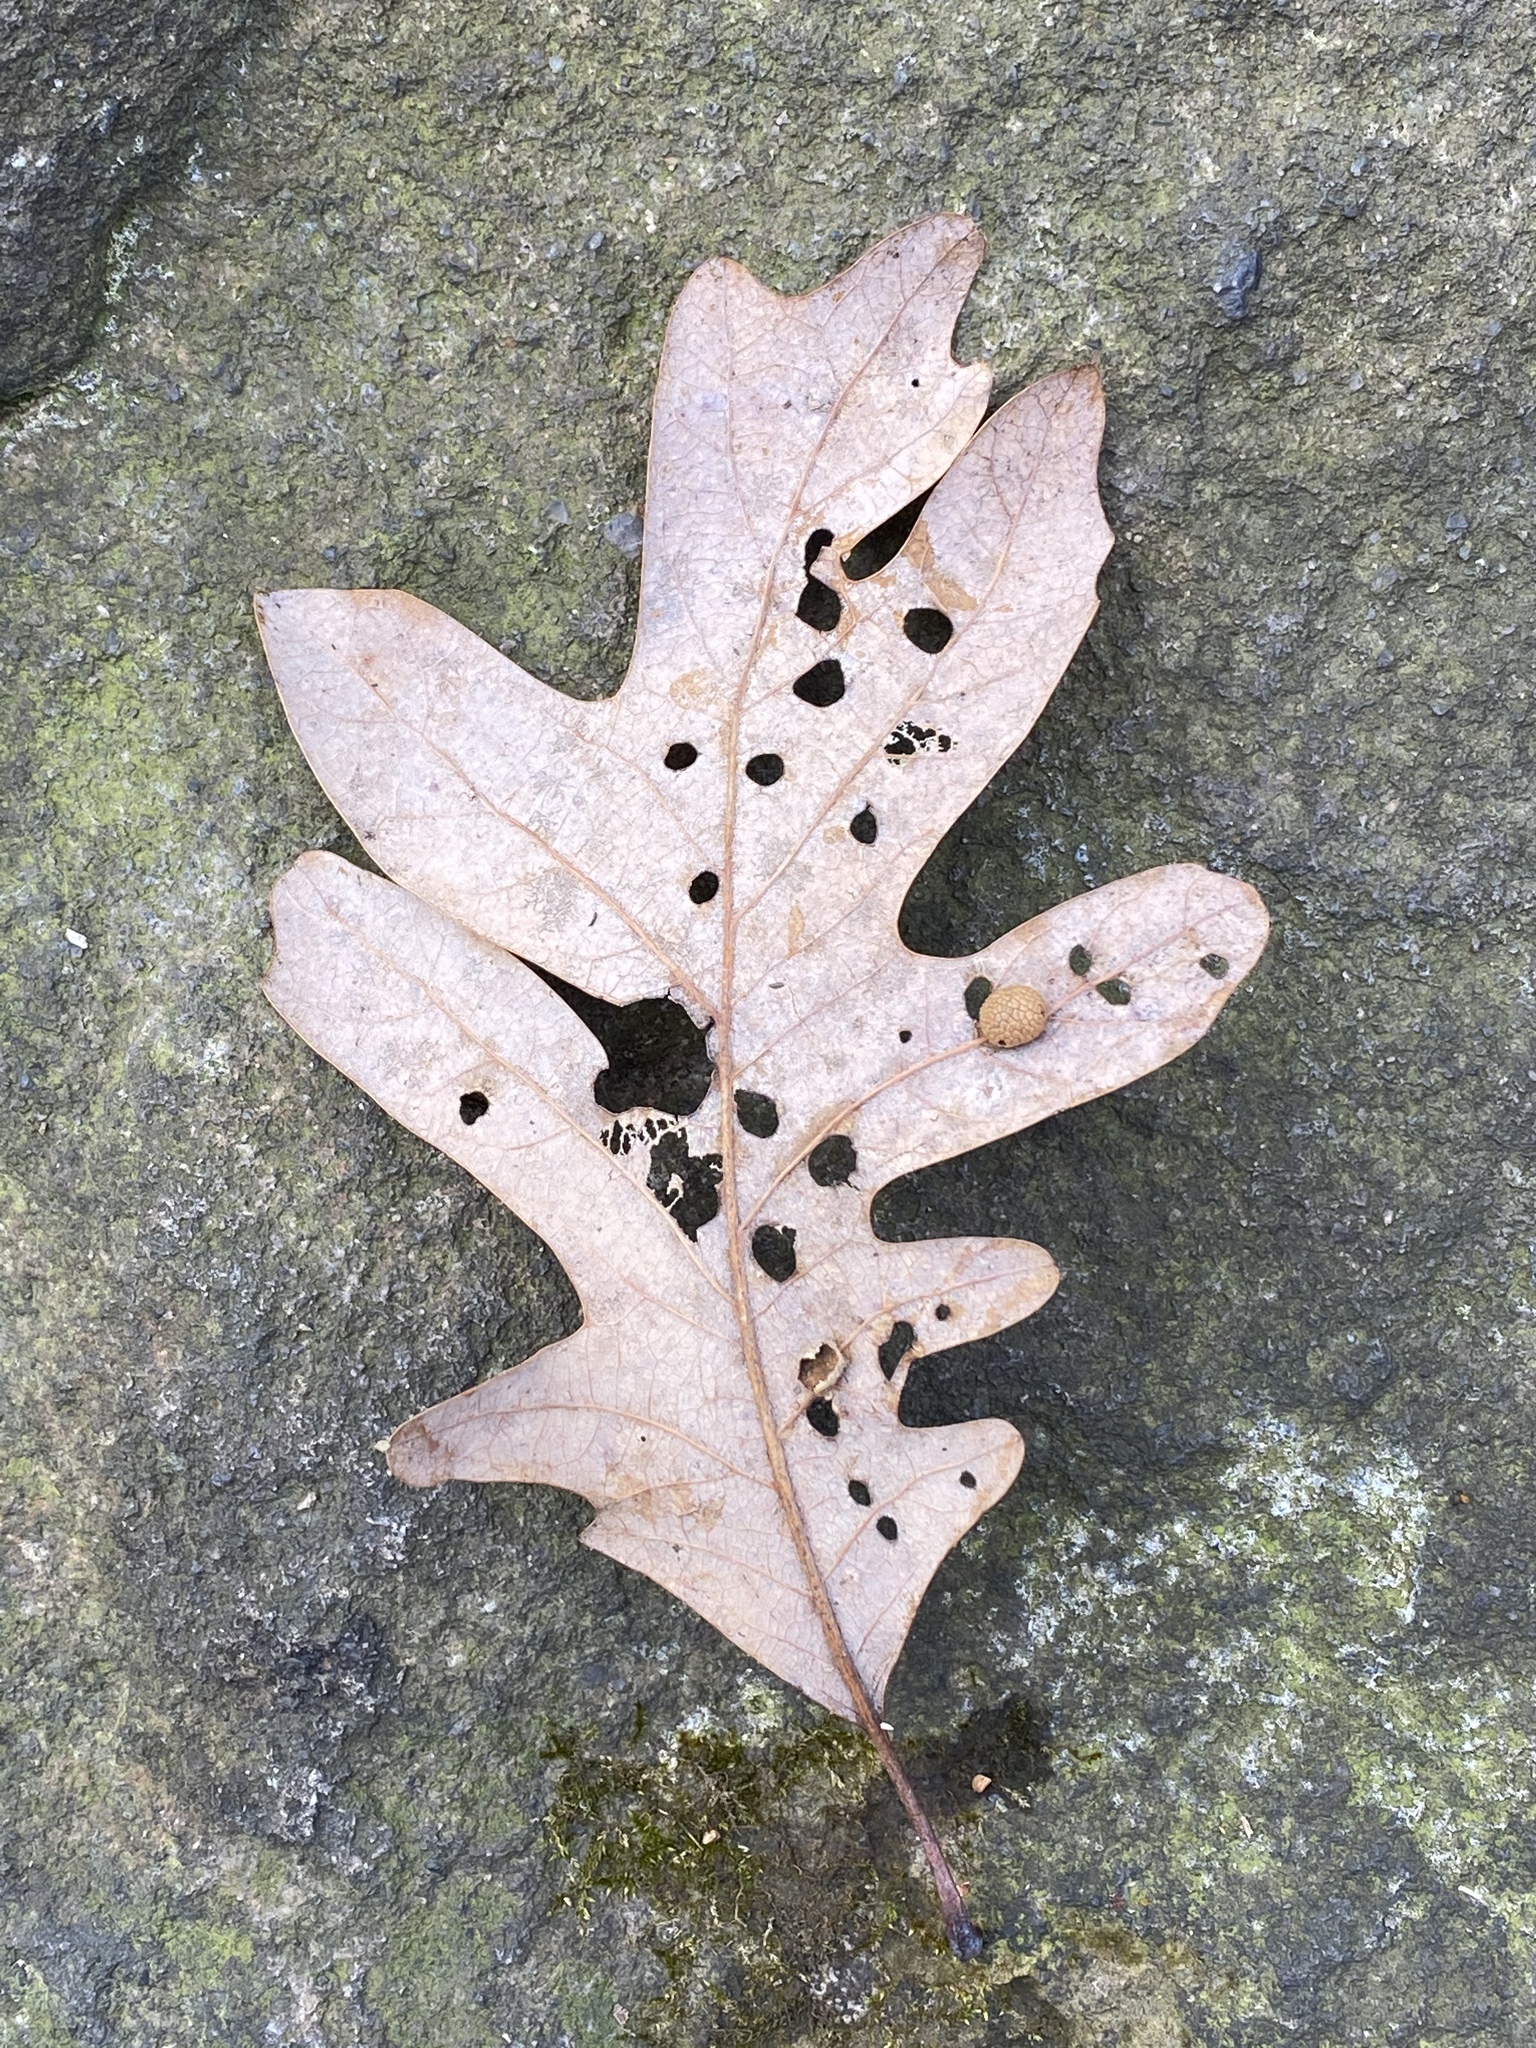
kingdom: Animalia
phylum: Arthropoda
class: Insecta
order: Hymenoptera
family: Cynipidae
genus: Acraspis
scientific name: Acraspis
